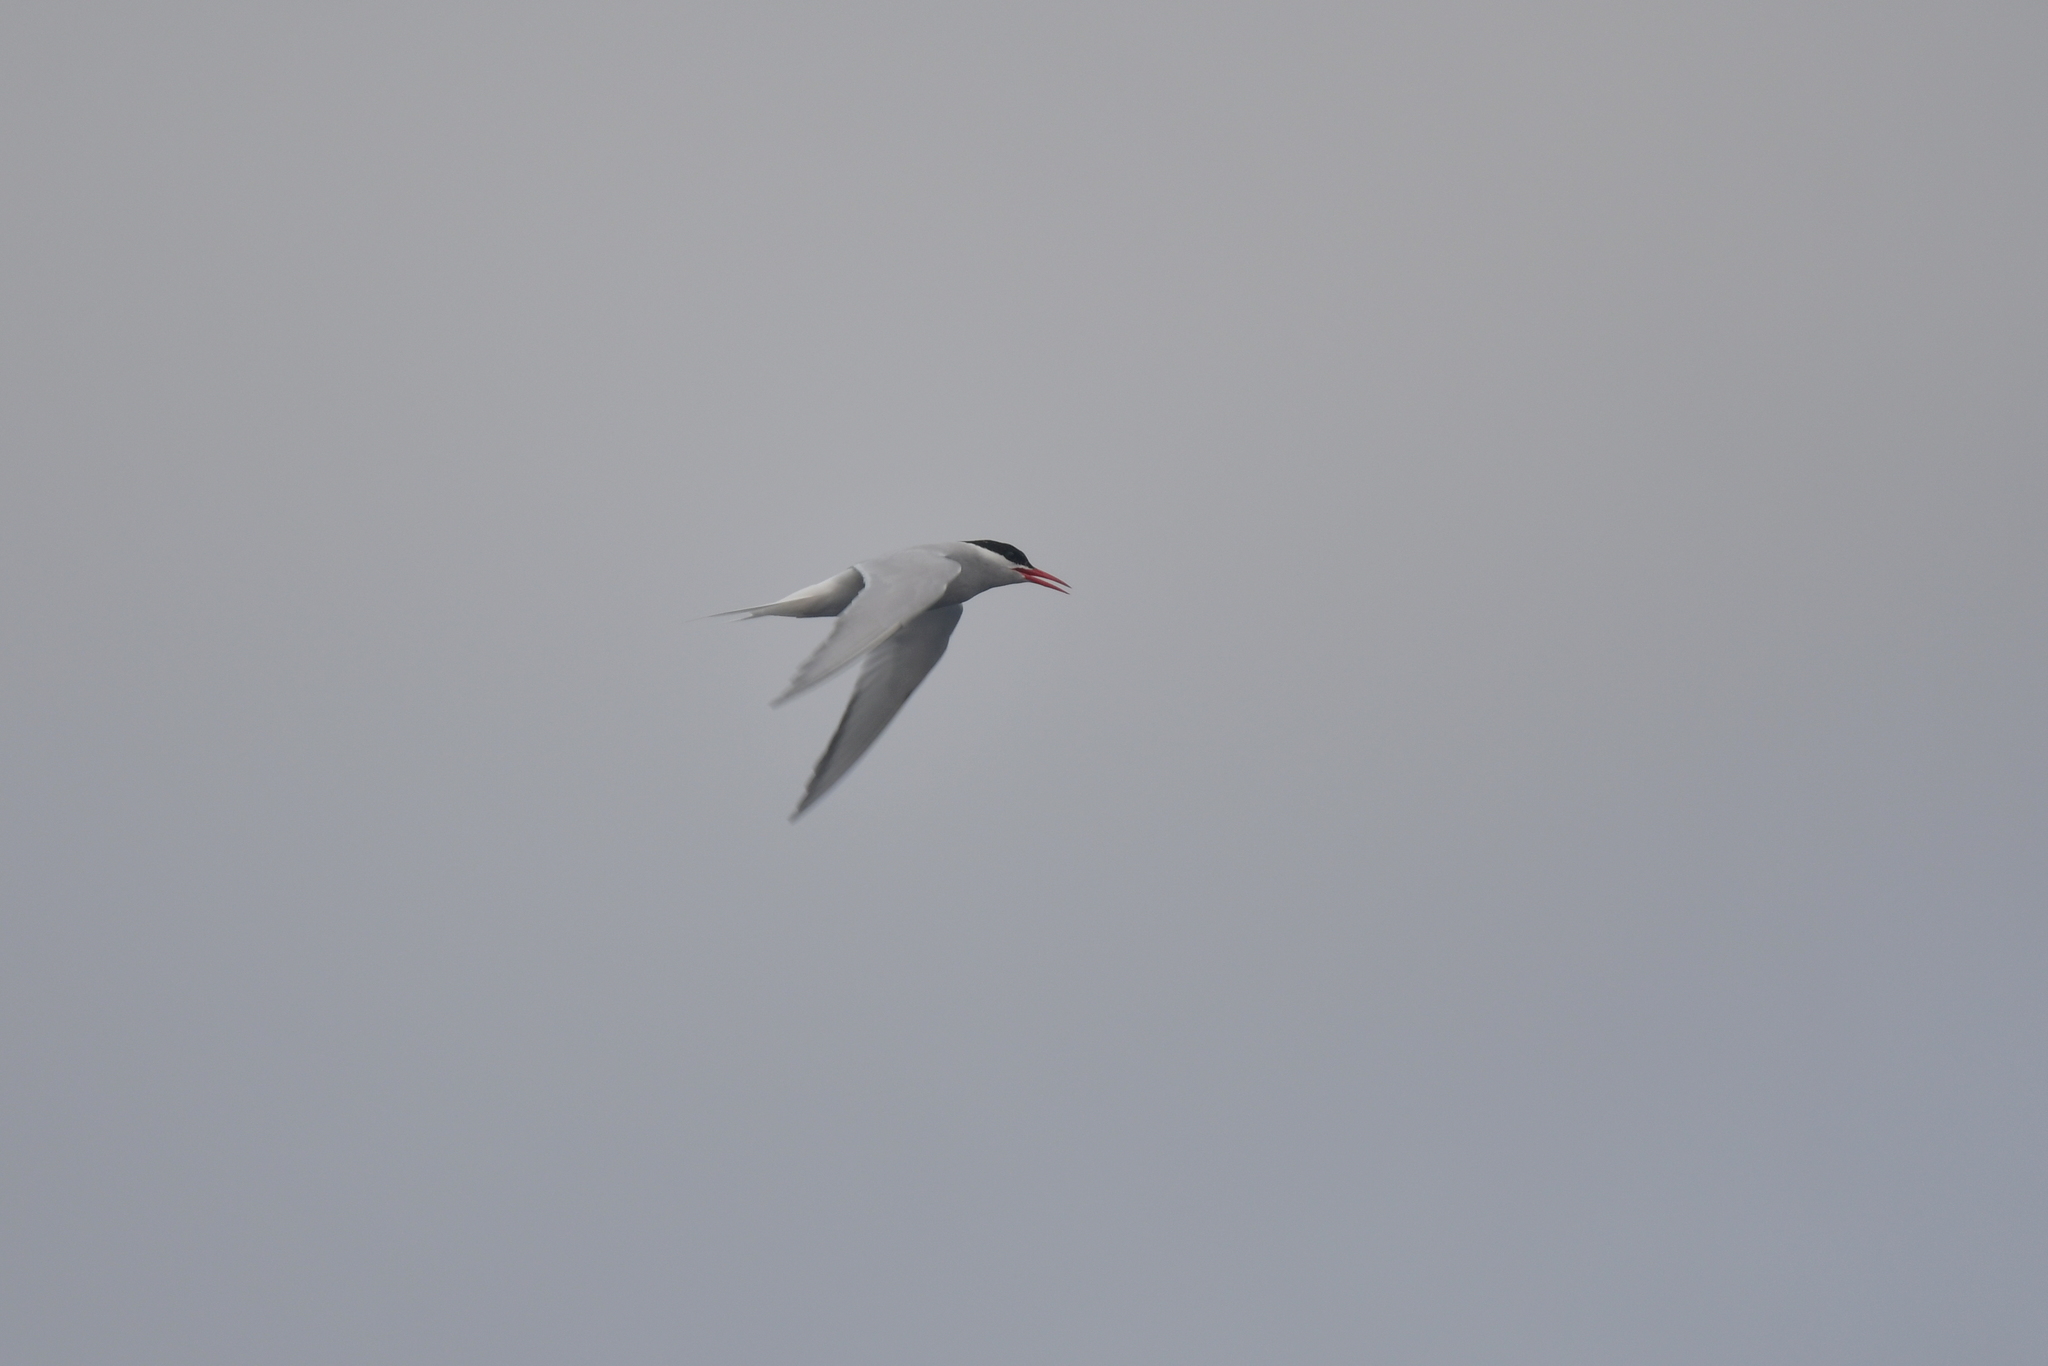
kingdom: Animalia
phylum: Chordata
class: Aves
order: Charadriiformes
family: Laridae
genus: Sterna
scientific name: Sterna vittata
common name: Antarctic tern
